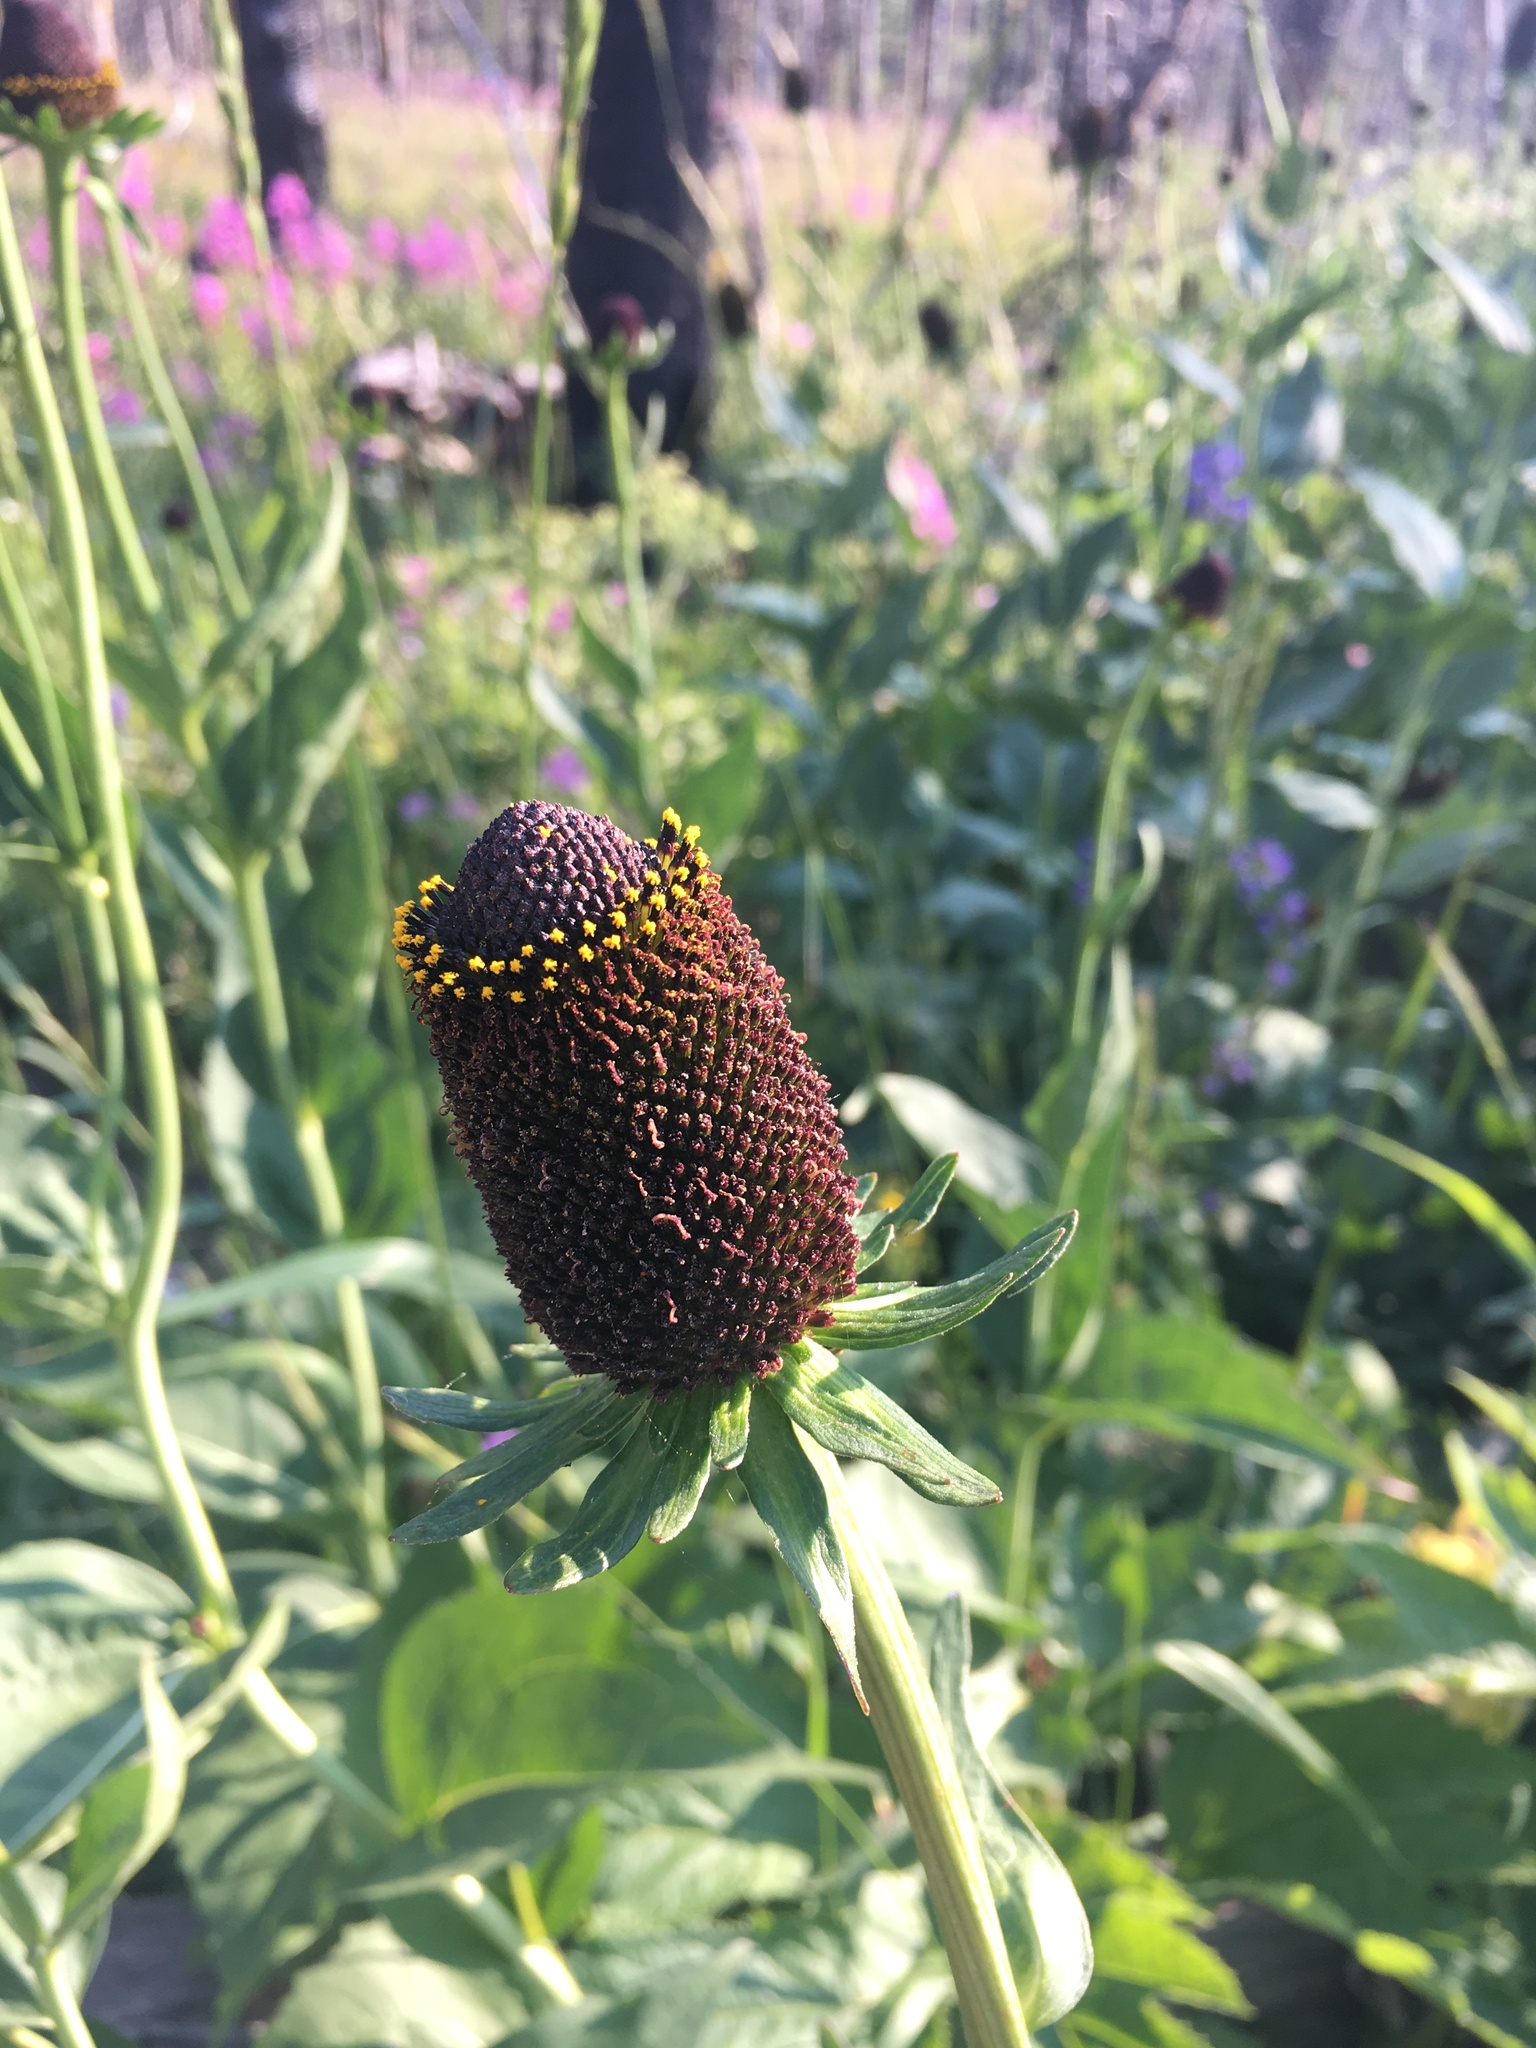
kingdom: Plantae
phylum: Tracheophyta
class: Magnoliopsida
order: Asterales
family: Asteraceae
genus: Rudbeckia
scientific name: Rudbeckia occidentalis
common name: Western coneflower
